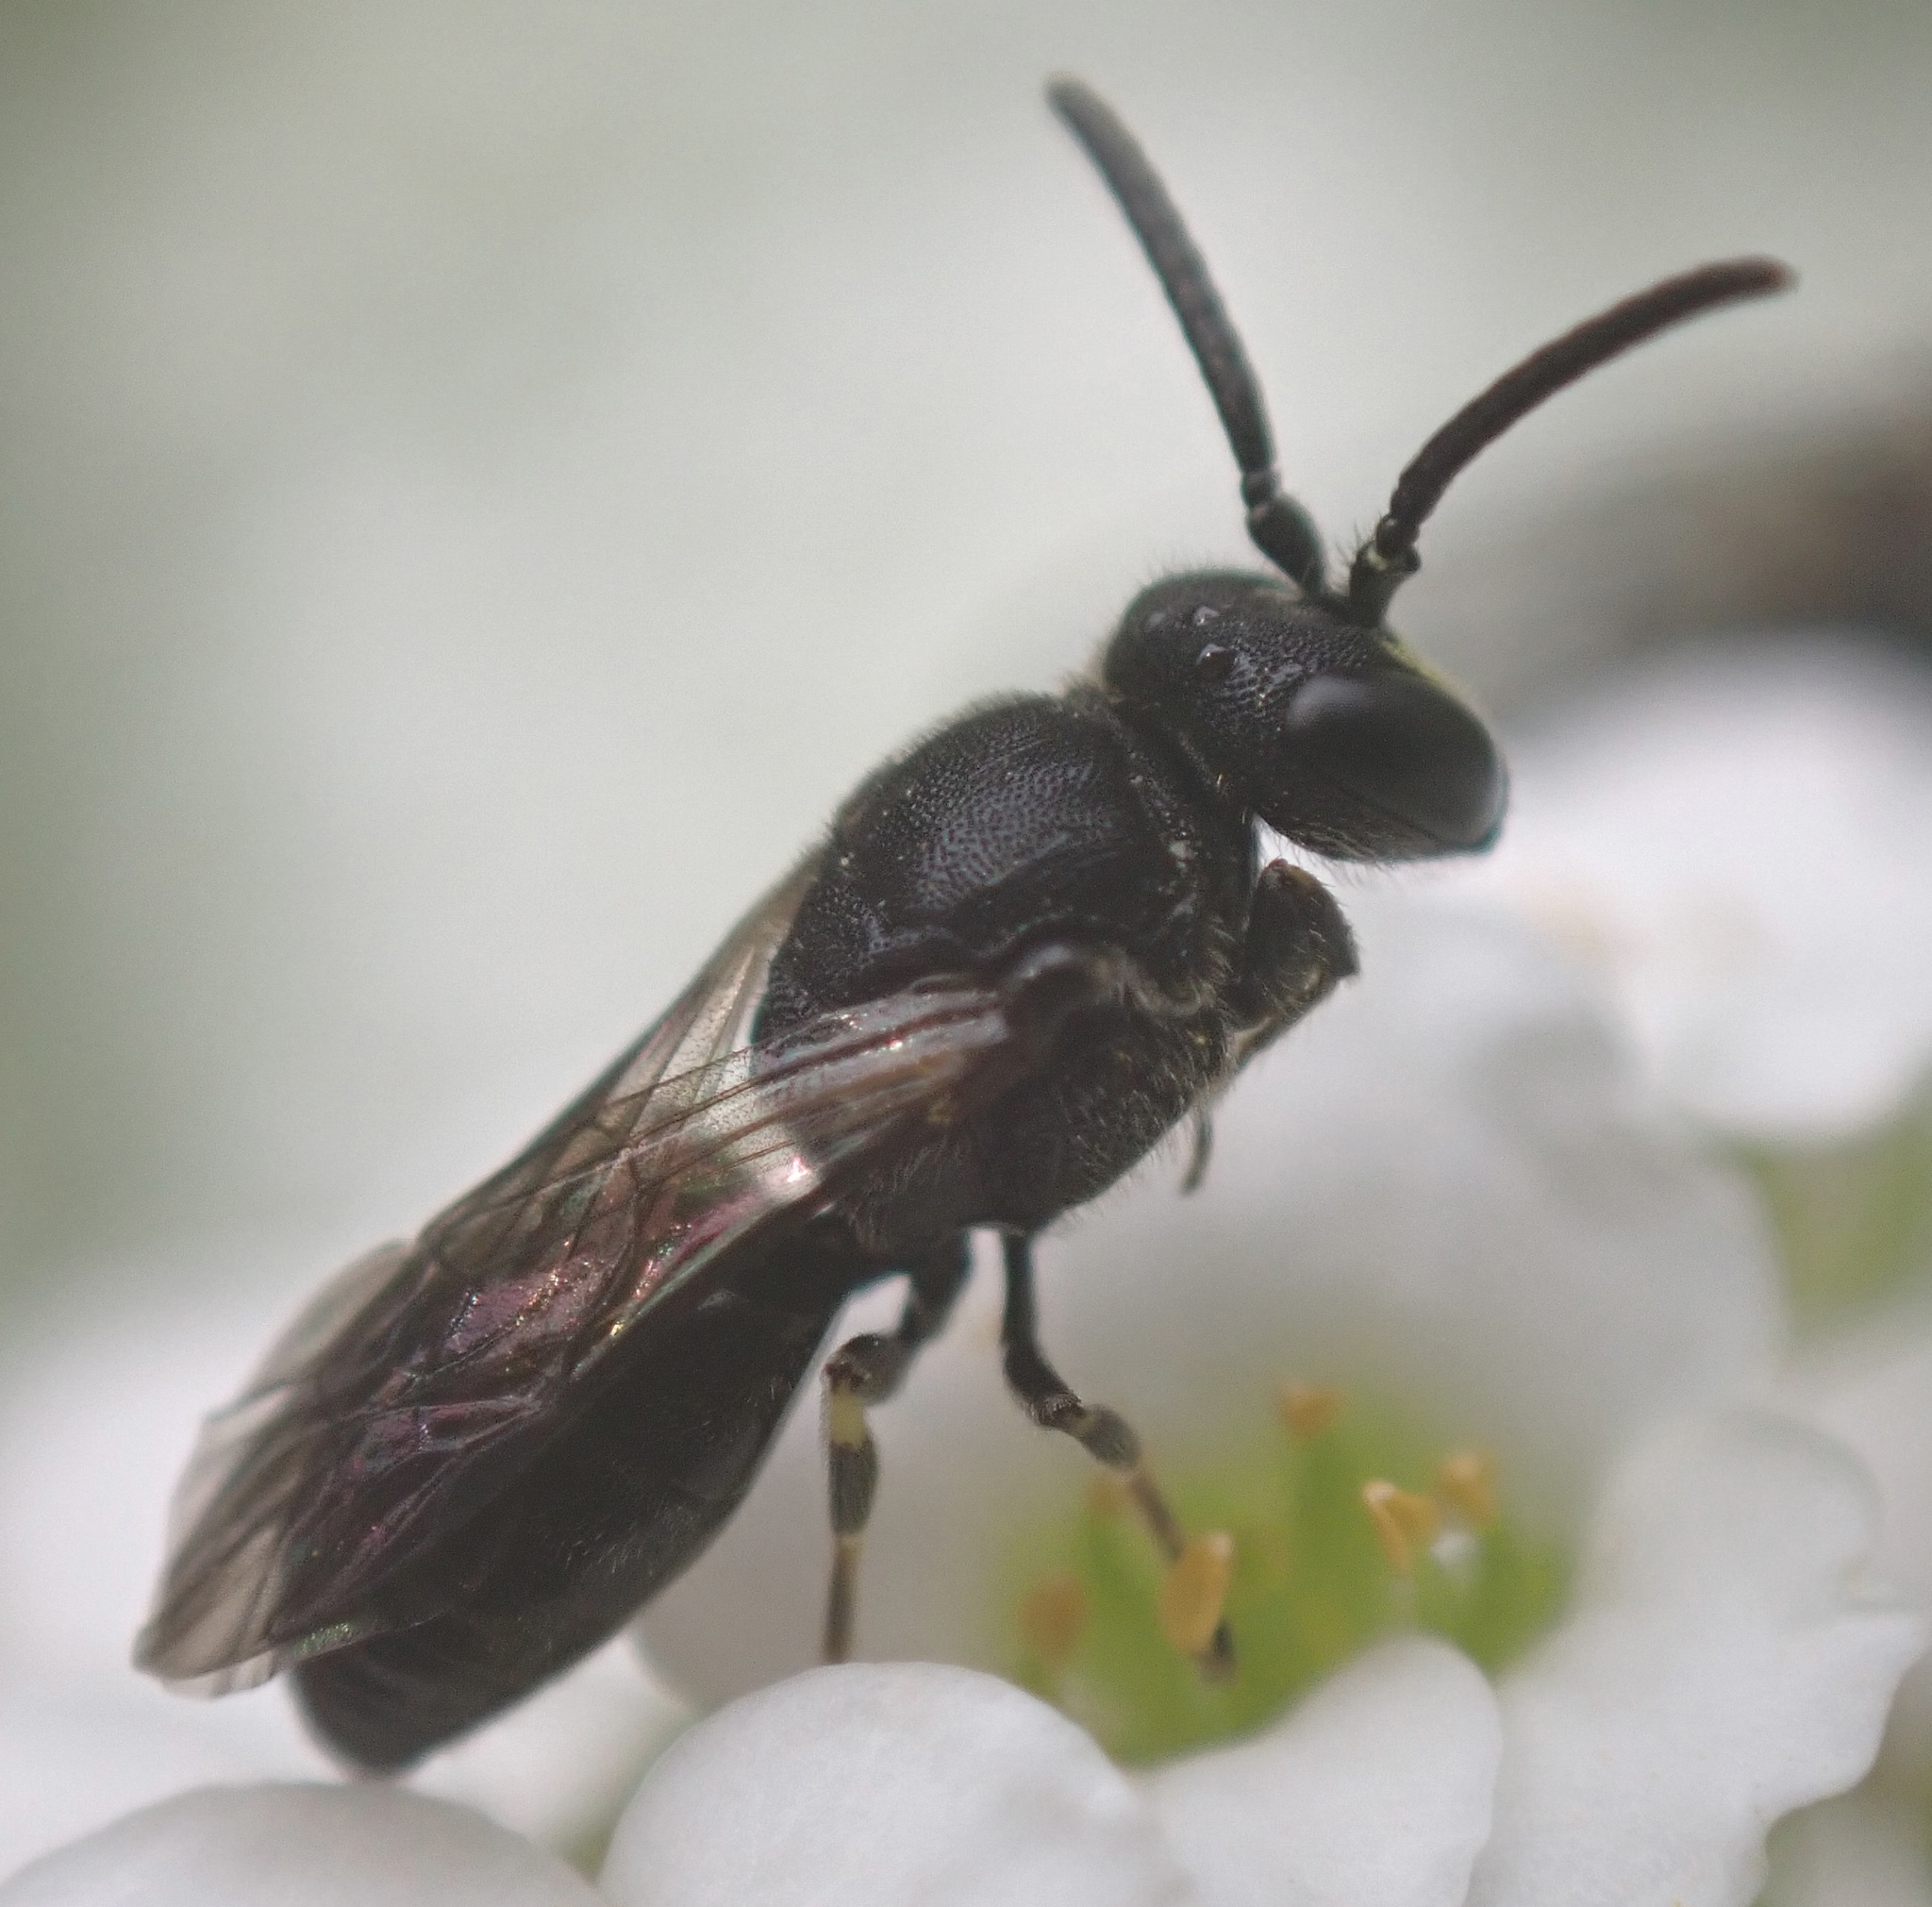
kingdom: Animalia
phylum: Arthropoda
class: Insecta
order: Hymenoptera
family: Colletidae
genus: Hylaeus
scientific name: Hylaeus communis
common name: Common yellow-face bee
